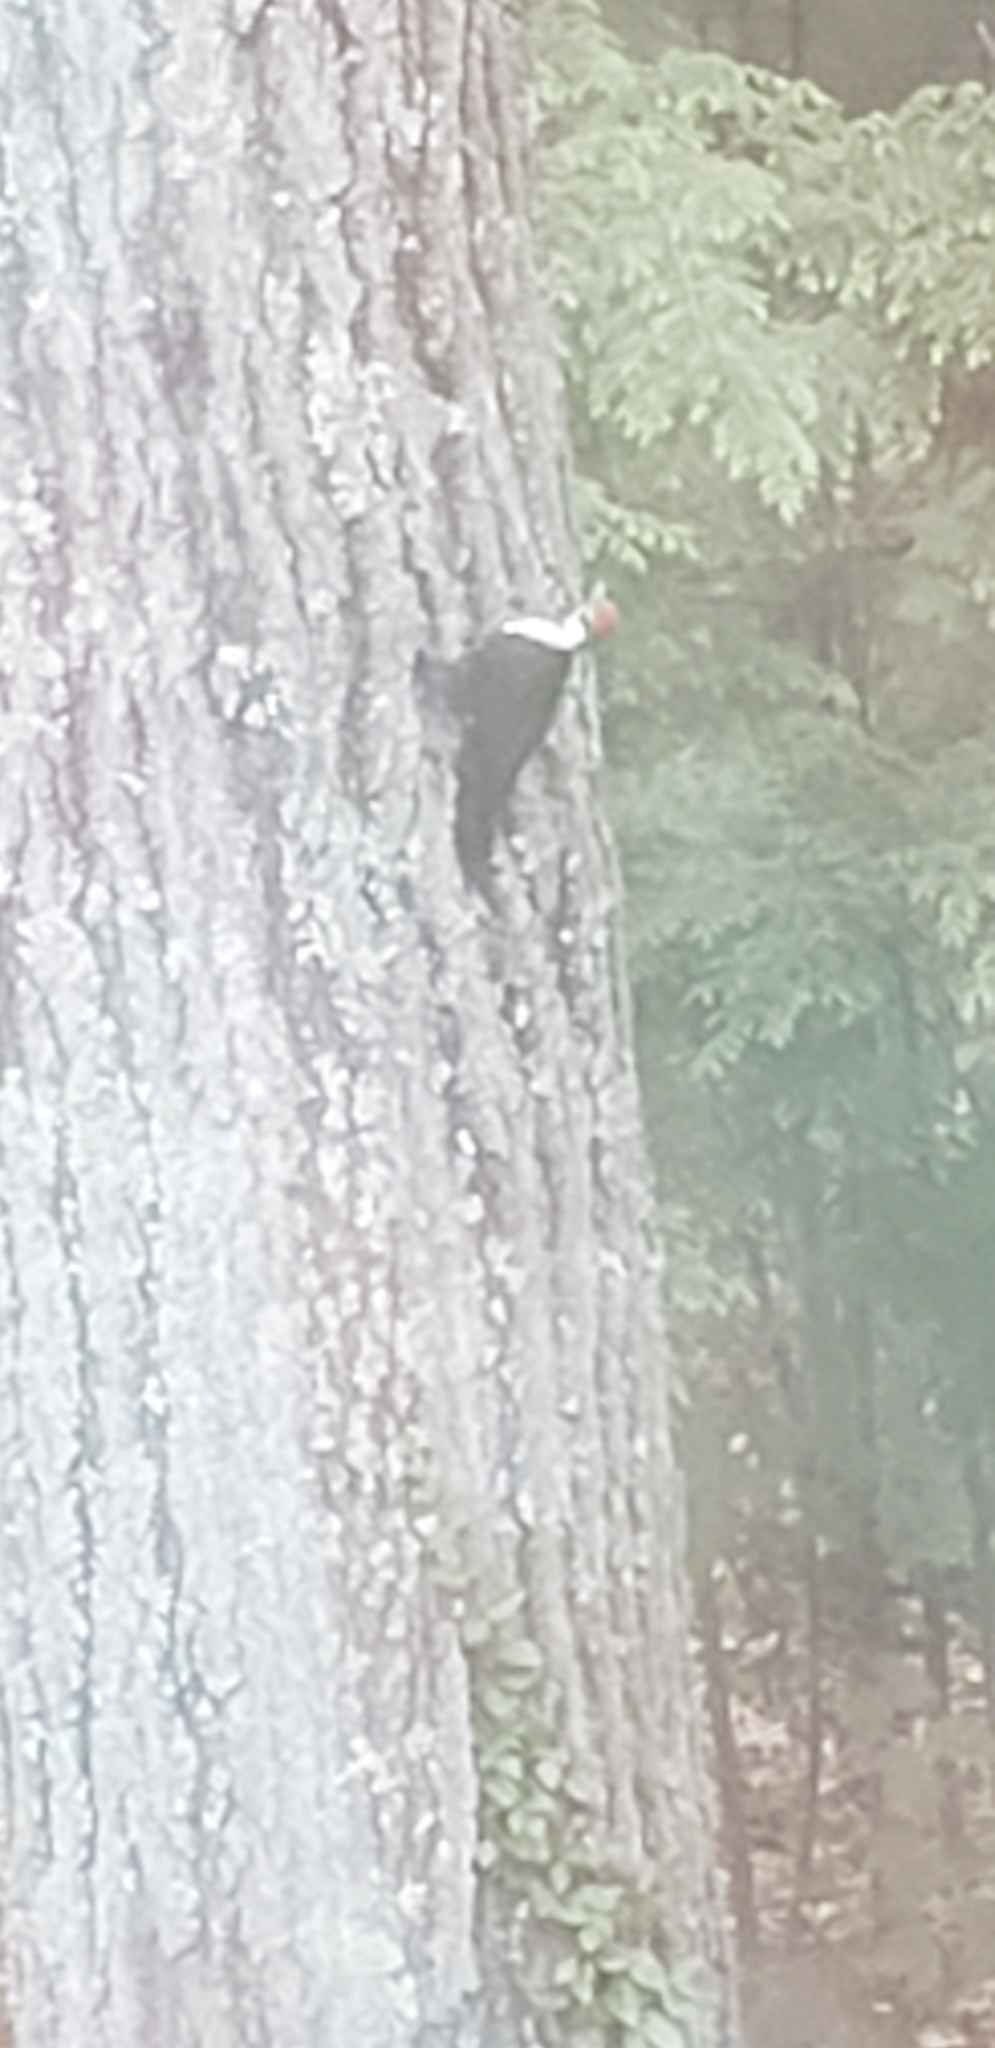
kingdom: Animalia
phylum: Chordata
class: Aves
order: Piciformes
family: Picidae
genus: Dryocopus
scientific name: Dryocopus pileatus
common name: Pileated woodpecker
